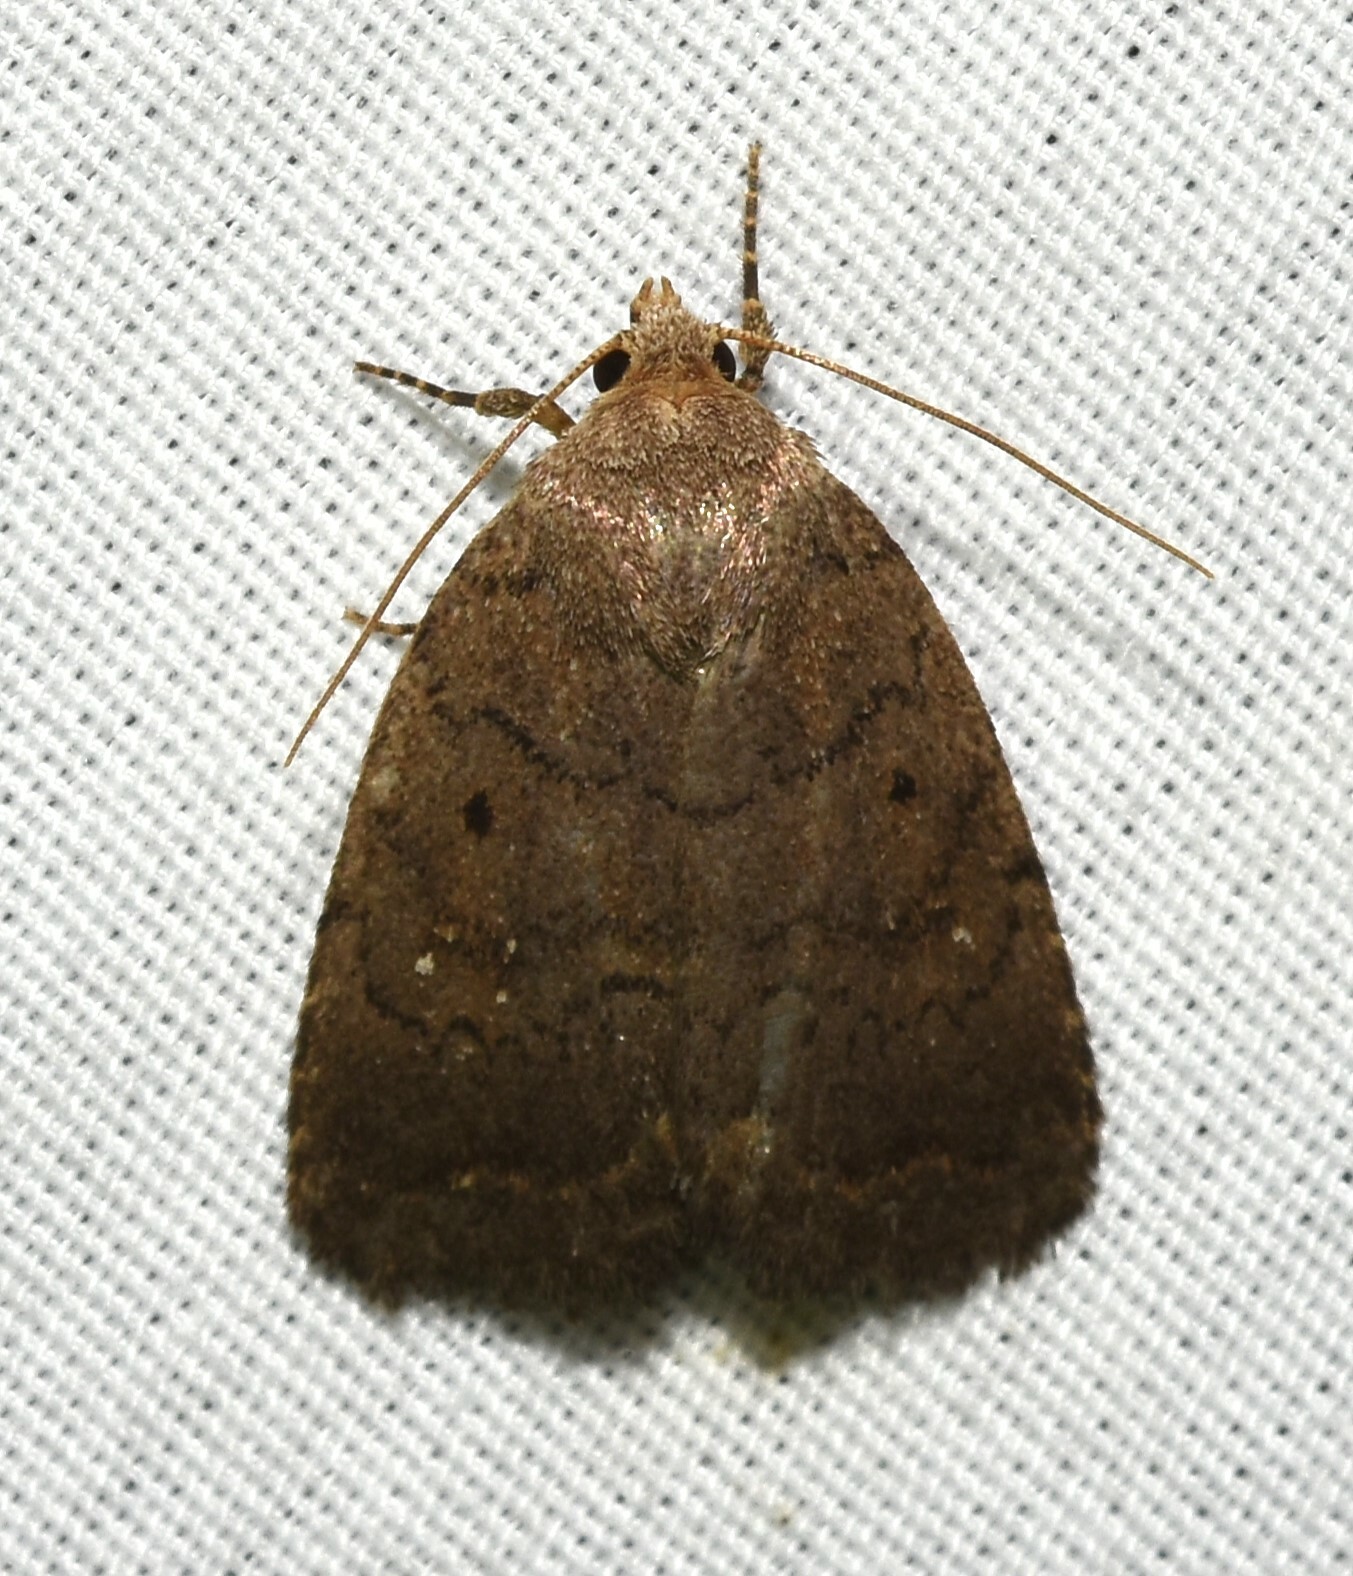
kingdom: Animalia
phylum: Arthropoda
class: Insecta
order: Lepidoptera
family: Noctuidae
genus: Athetis
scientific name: Athetis tarda
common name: Slowpoke moth
